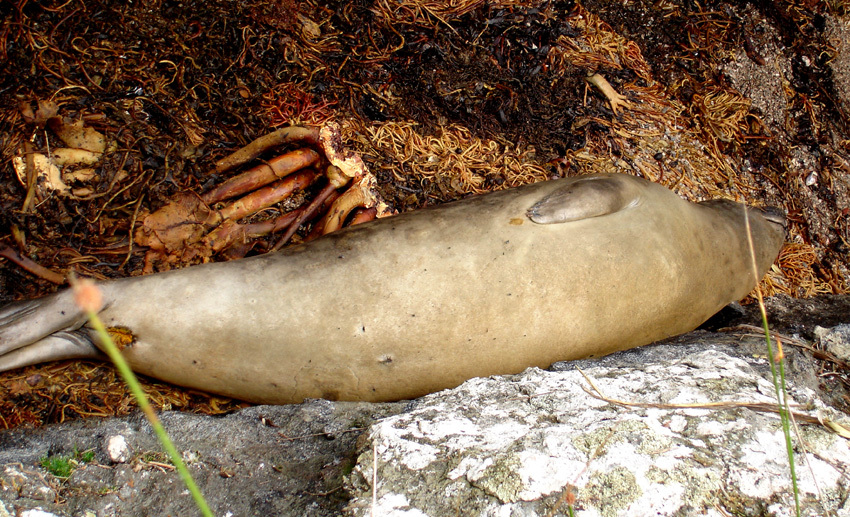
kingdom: Animalia
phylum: Chordata
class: Mammalia
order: Carnivora
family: Phocidae
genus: Mirounga
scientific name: Mirounga leonina
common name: Southern elephant seal
